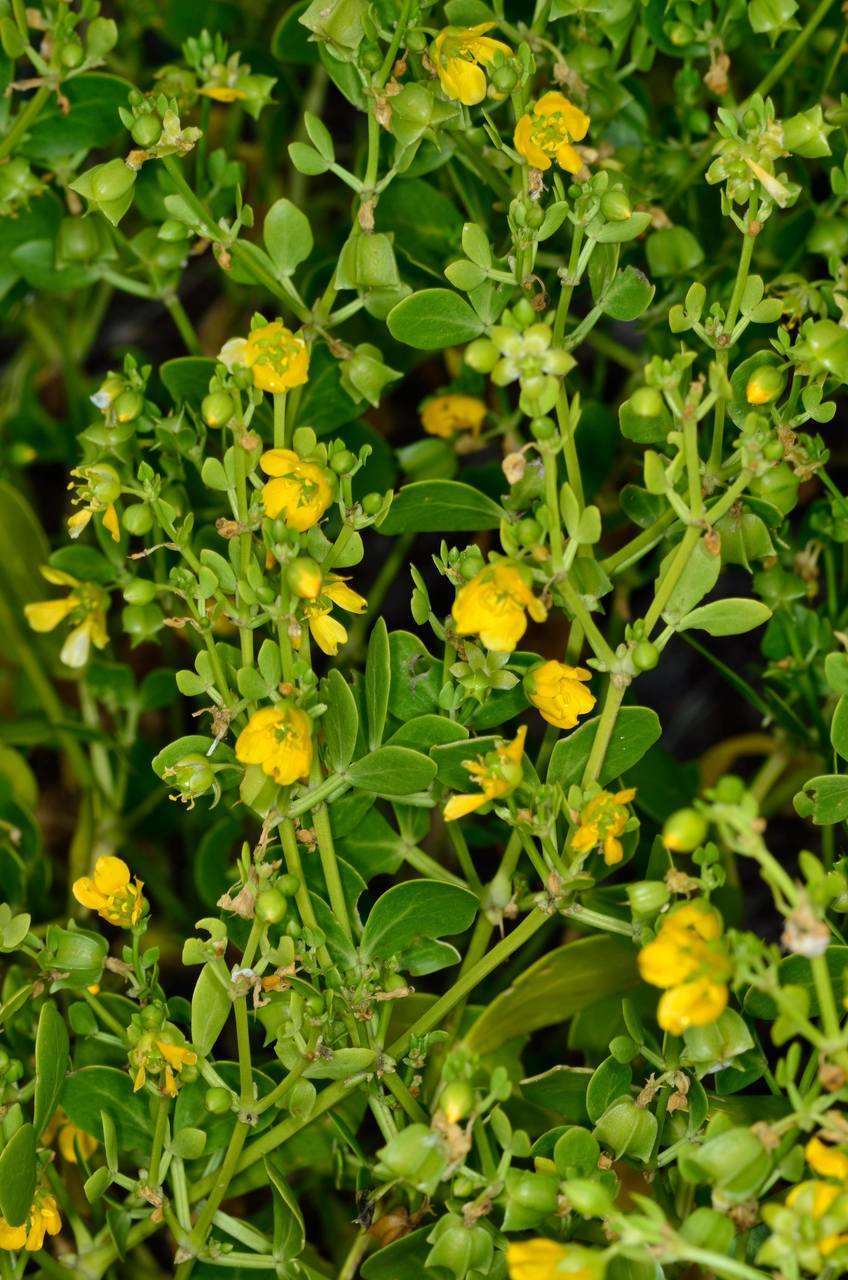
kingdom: Plantae
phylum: Tracheophyta
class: Magnoliopsida
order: Zygophyllales
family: Zygophyllaceae
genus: Roepera
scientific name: Roepera apiculata
